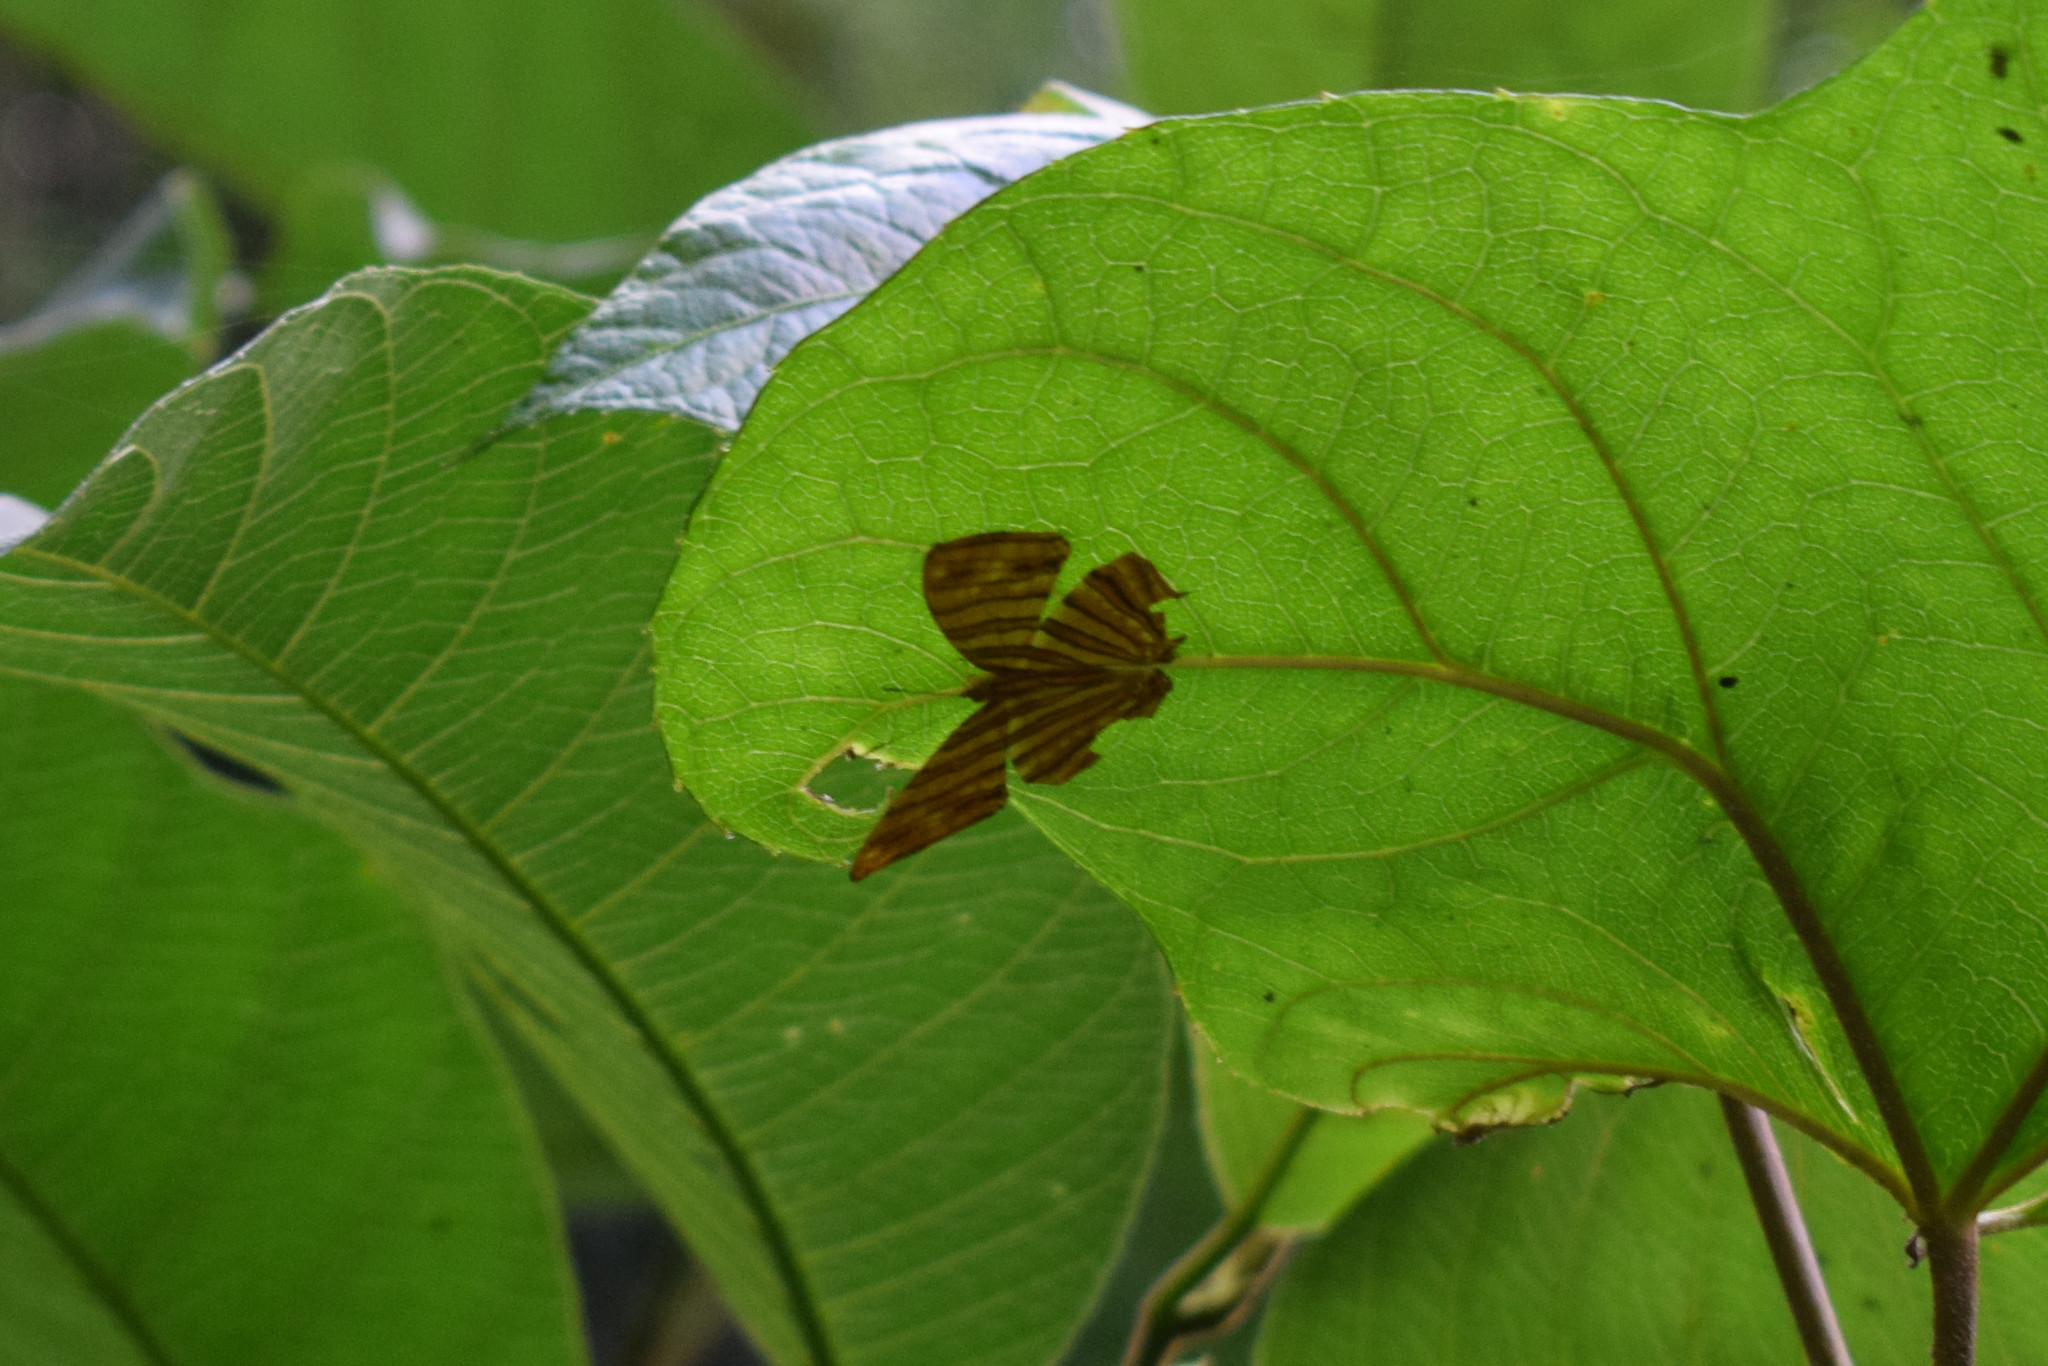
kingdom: Animalia
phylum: Arthropoda
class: Insecta
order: Lepidoptera
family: Nymphalidae
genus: Chersonesia
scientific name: Chersonesia risa
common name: Common maplet
